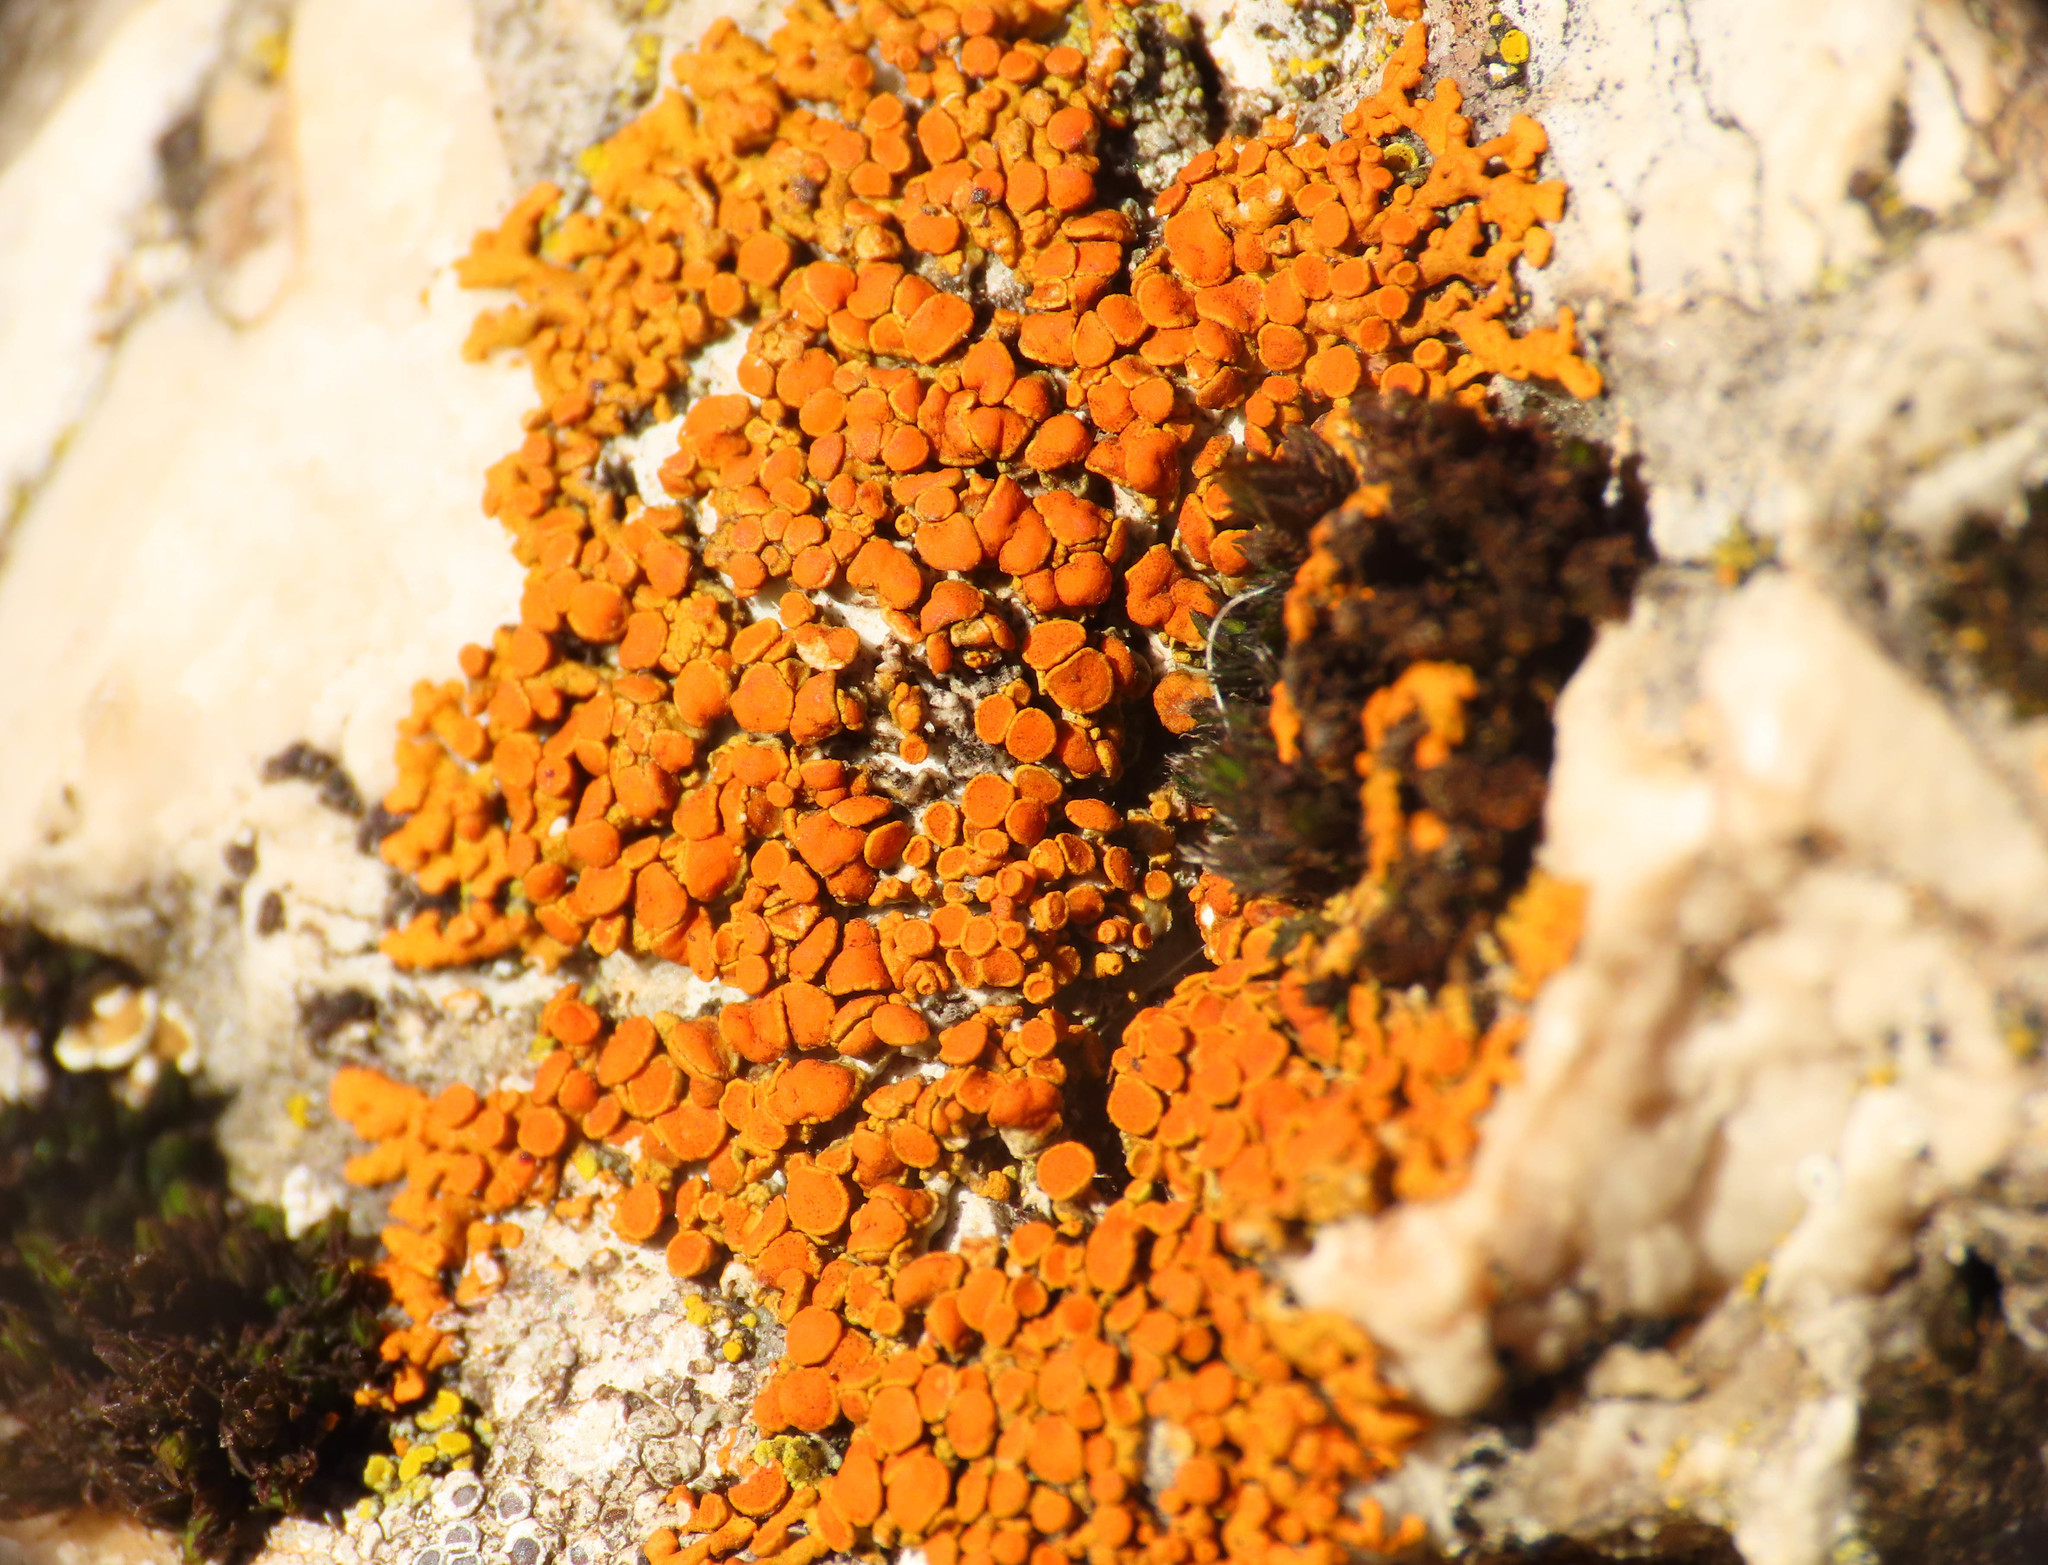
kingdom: Fungi
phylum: Ascomycota
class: Lecanoromycetes
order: Teloschistales
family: Teloschistaceae
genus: Xanthoria
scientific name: Xanthoria elegans
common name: Elegant sunburst lichen
